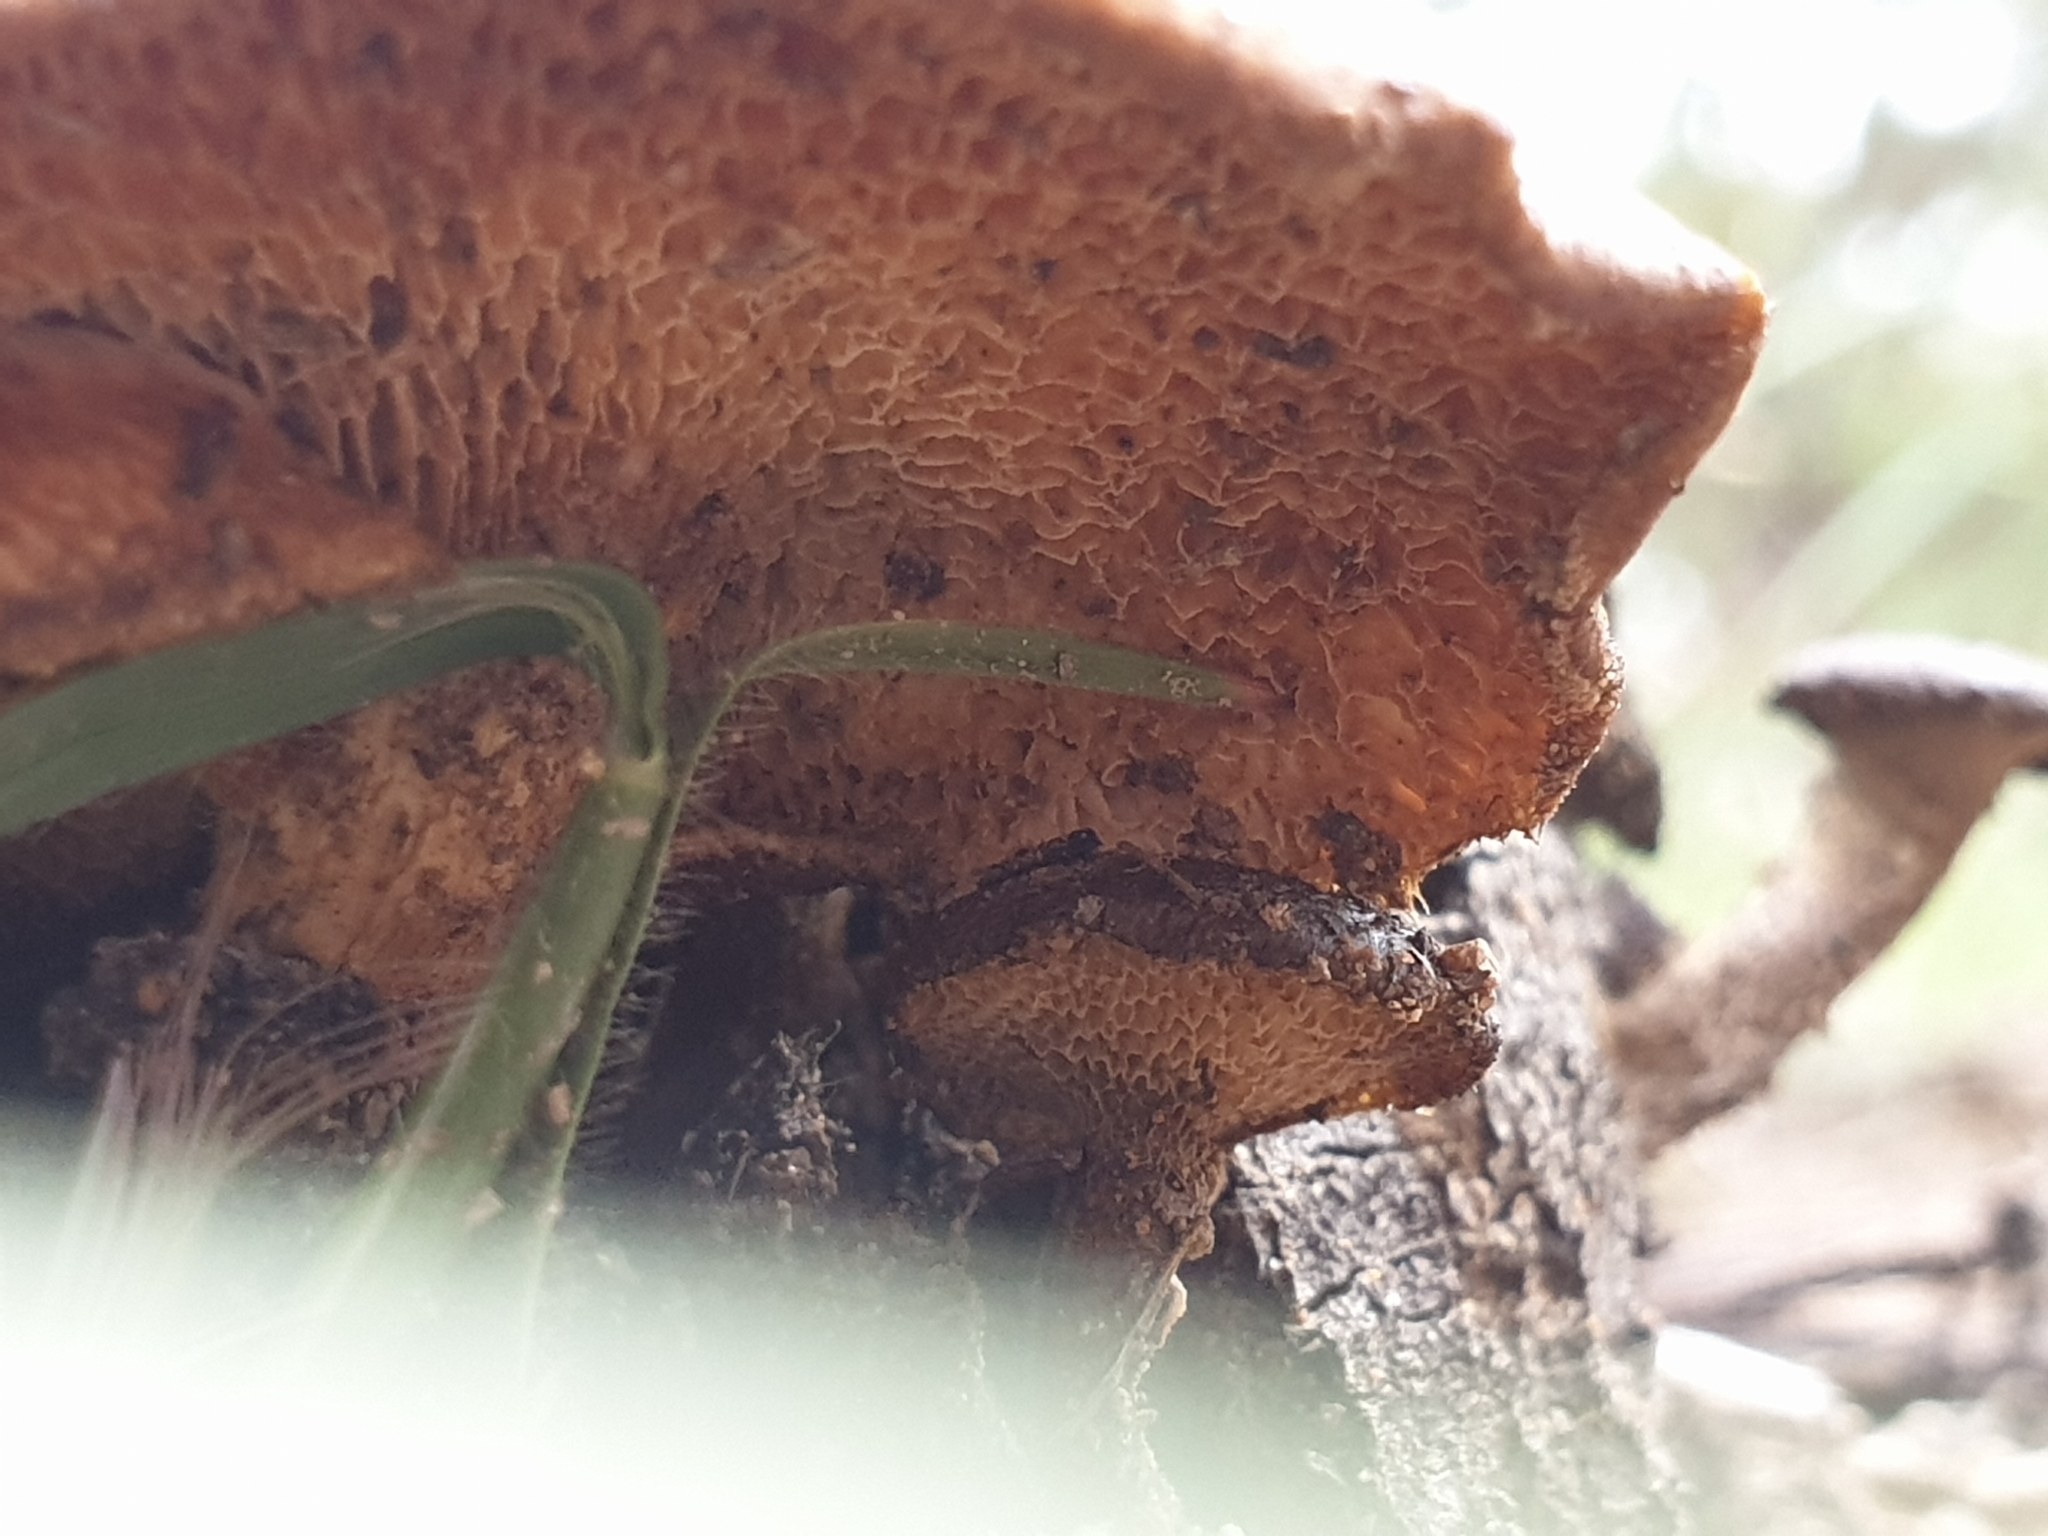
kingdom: Fungi
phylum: Basidiomycota
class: Agaricomycetes
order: Polyporales
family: Polyporaceae
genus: Lentinus
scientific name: Lentinus arcularius
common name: Spring polypore
